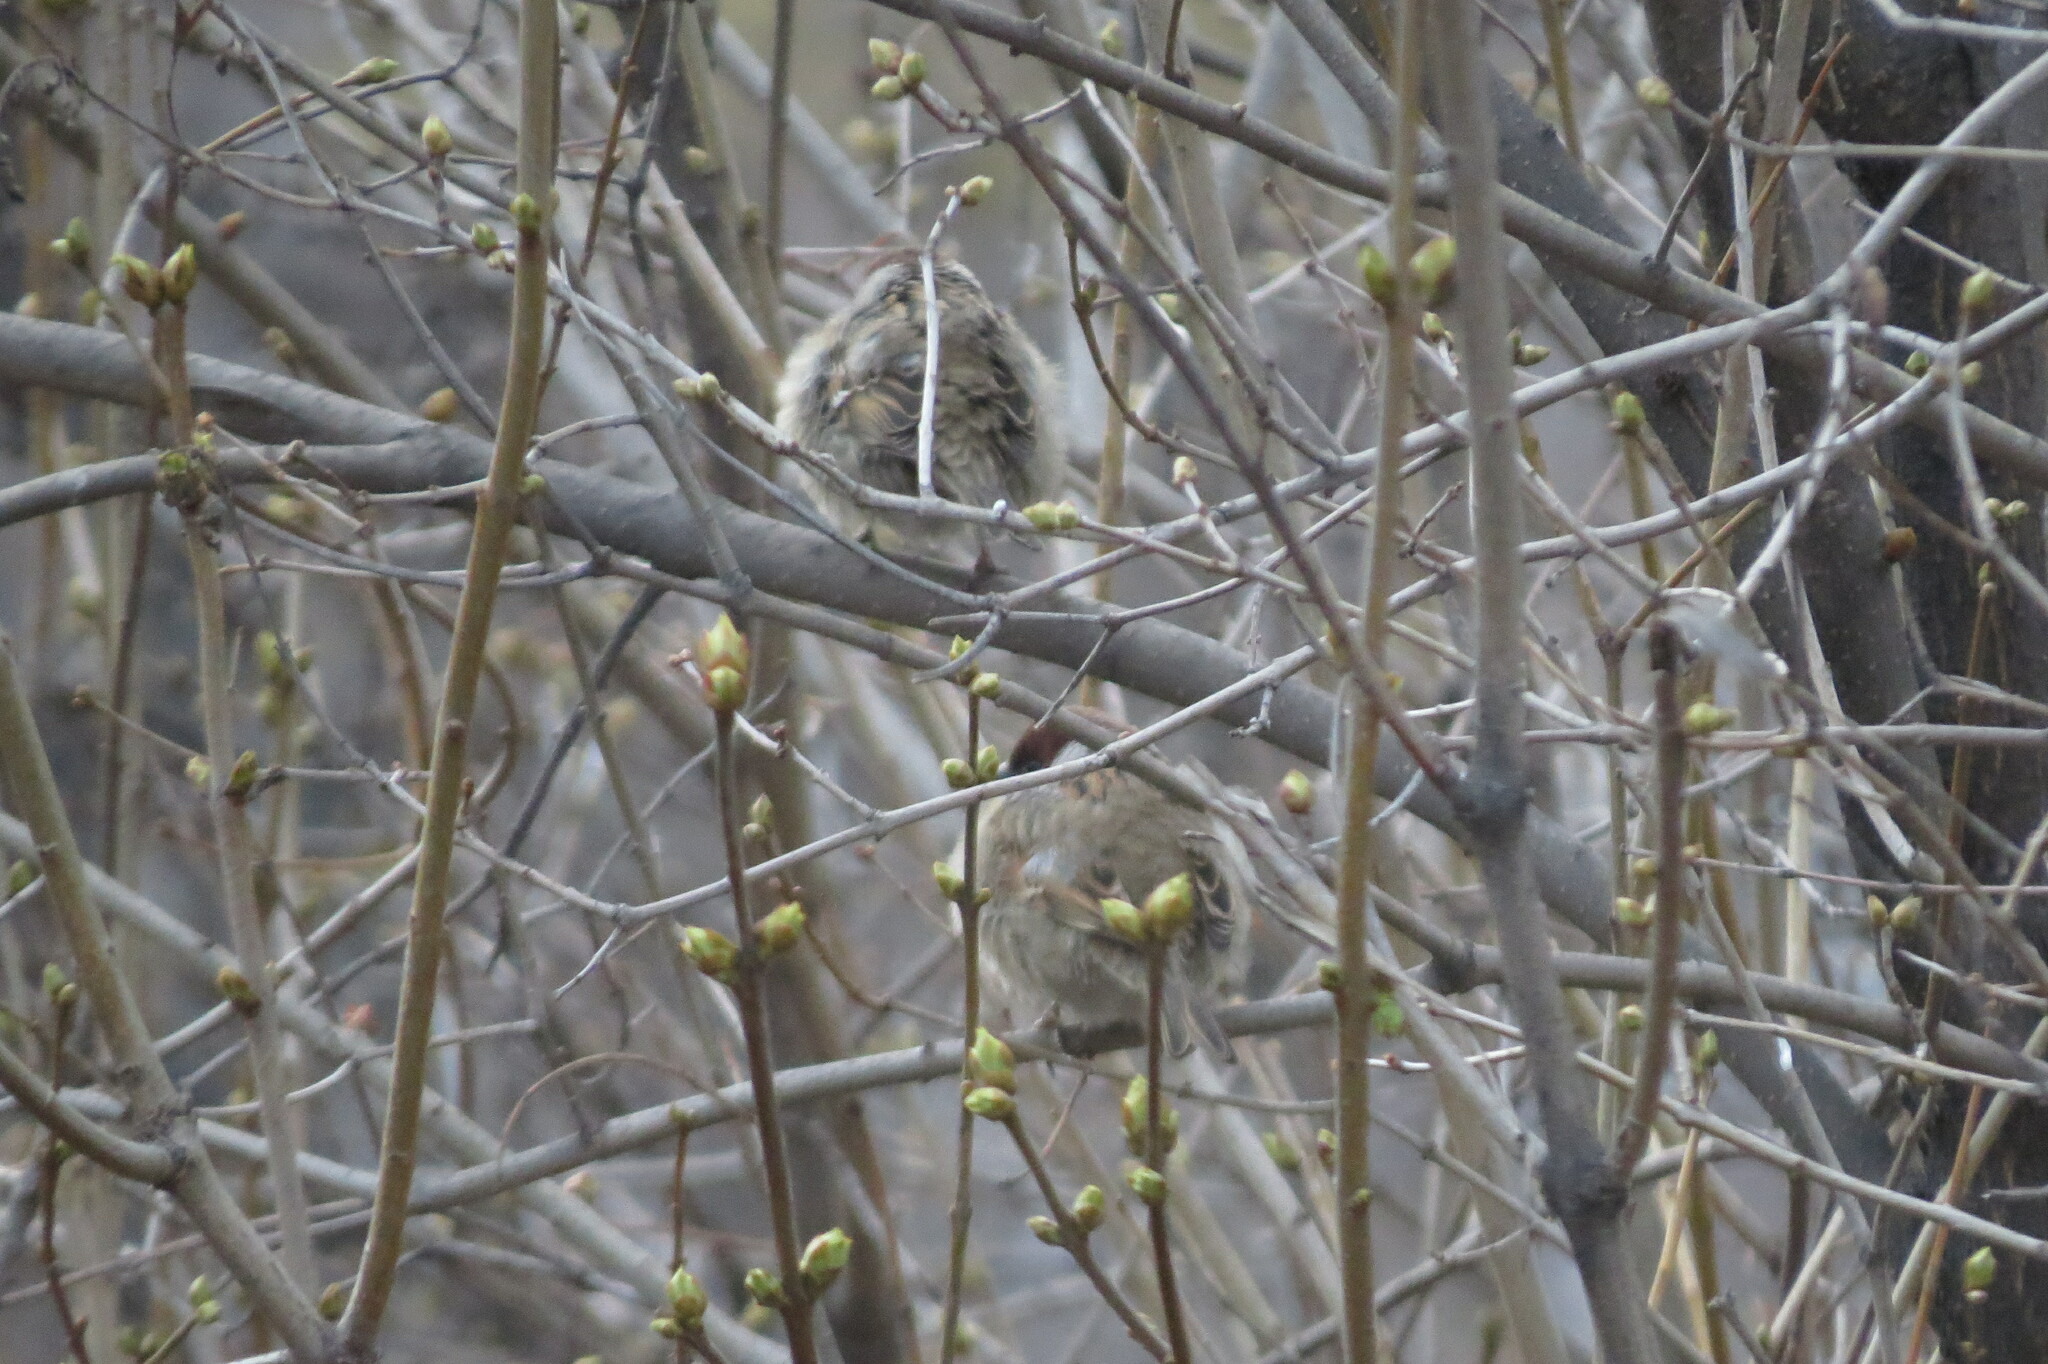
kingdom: Animalia
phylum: Chordata
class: Aves
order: Passeriformes
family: Passeridae
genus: Passer
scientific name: Passer montanus
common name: Eurasian tree sparrow
